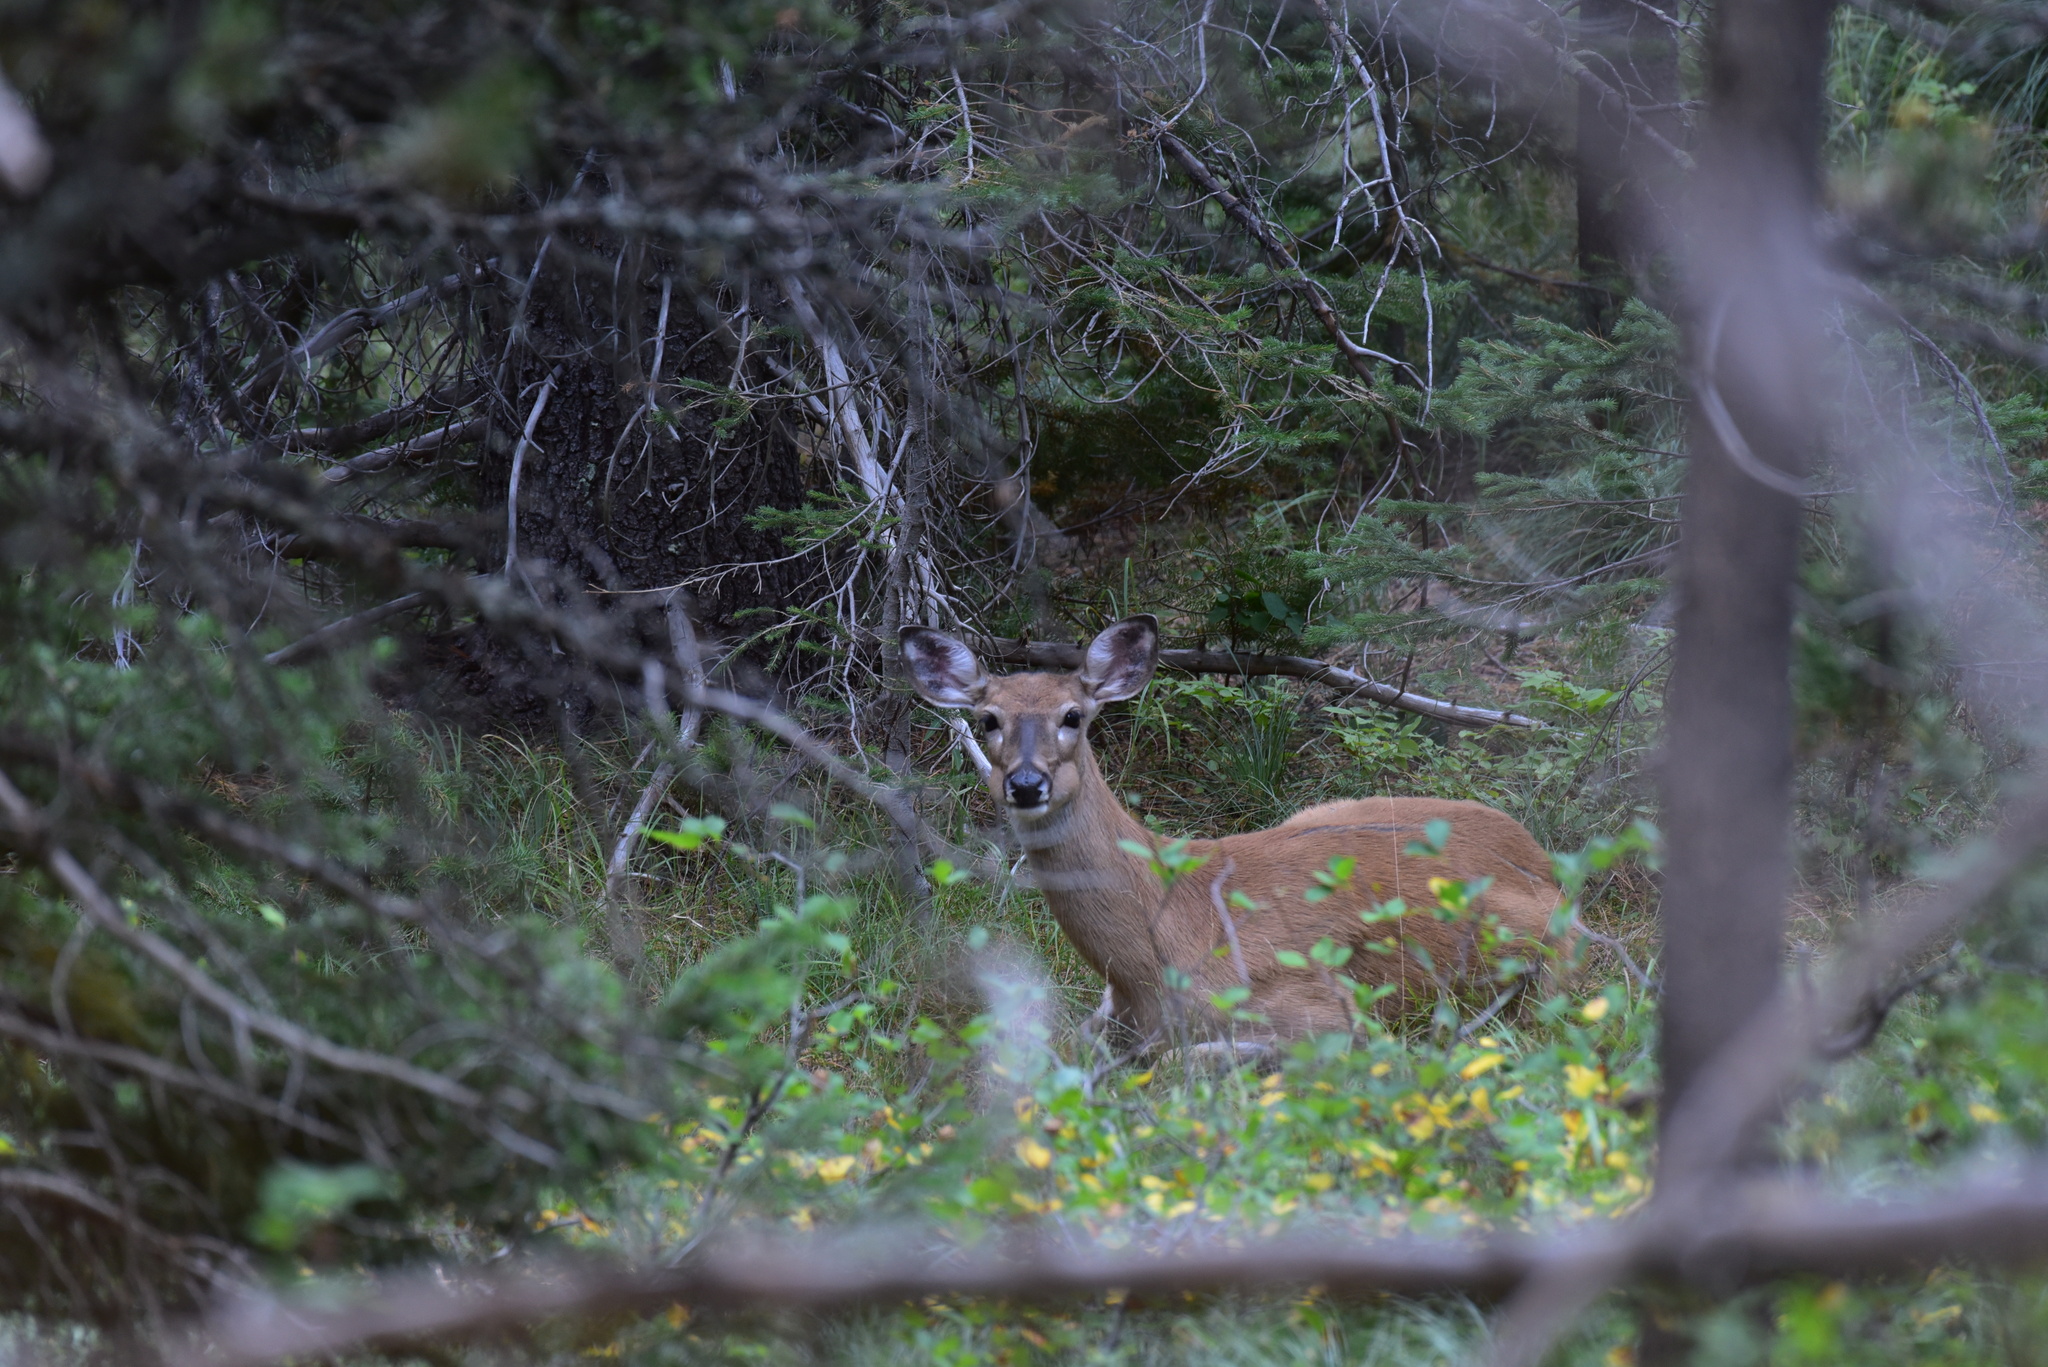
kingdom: Animalia
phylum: Chordata
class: Mammalia
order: Artiodactyla
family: Cervidae
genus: Odocoileus
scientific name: Odocoileus virginianus
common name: White-tailed deer
